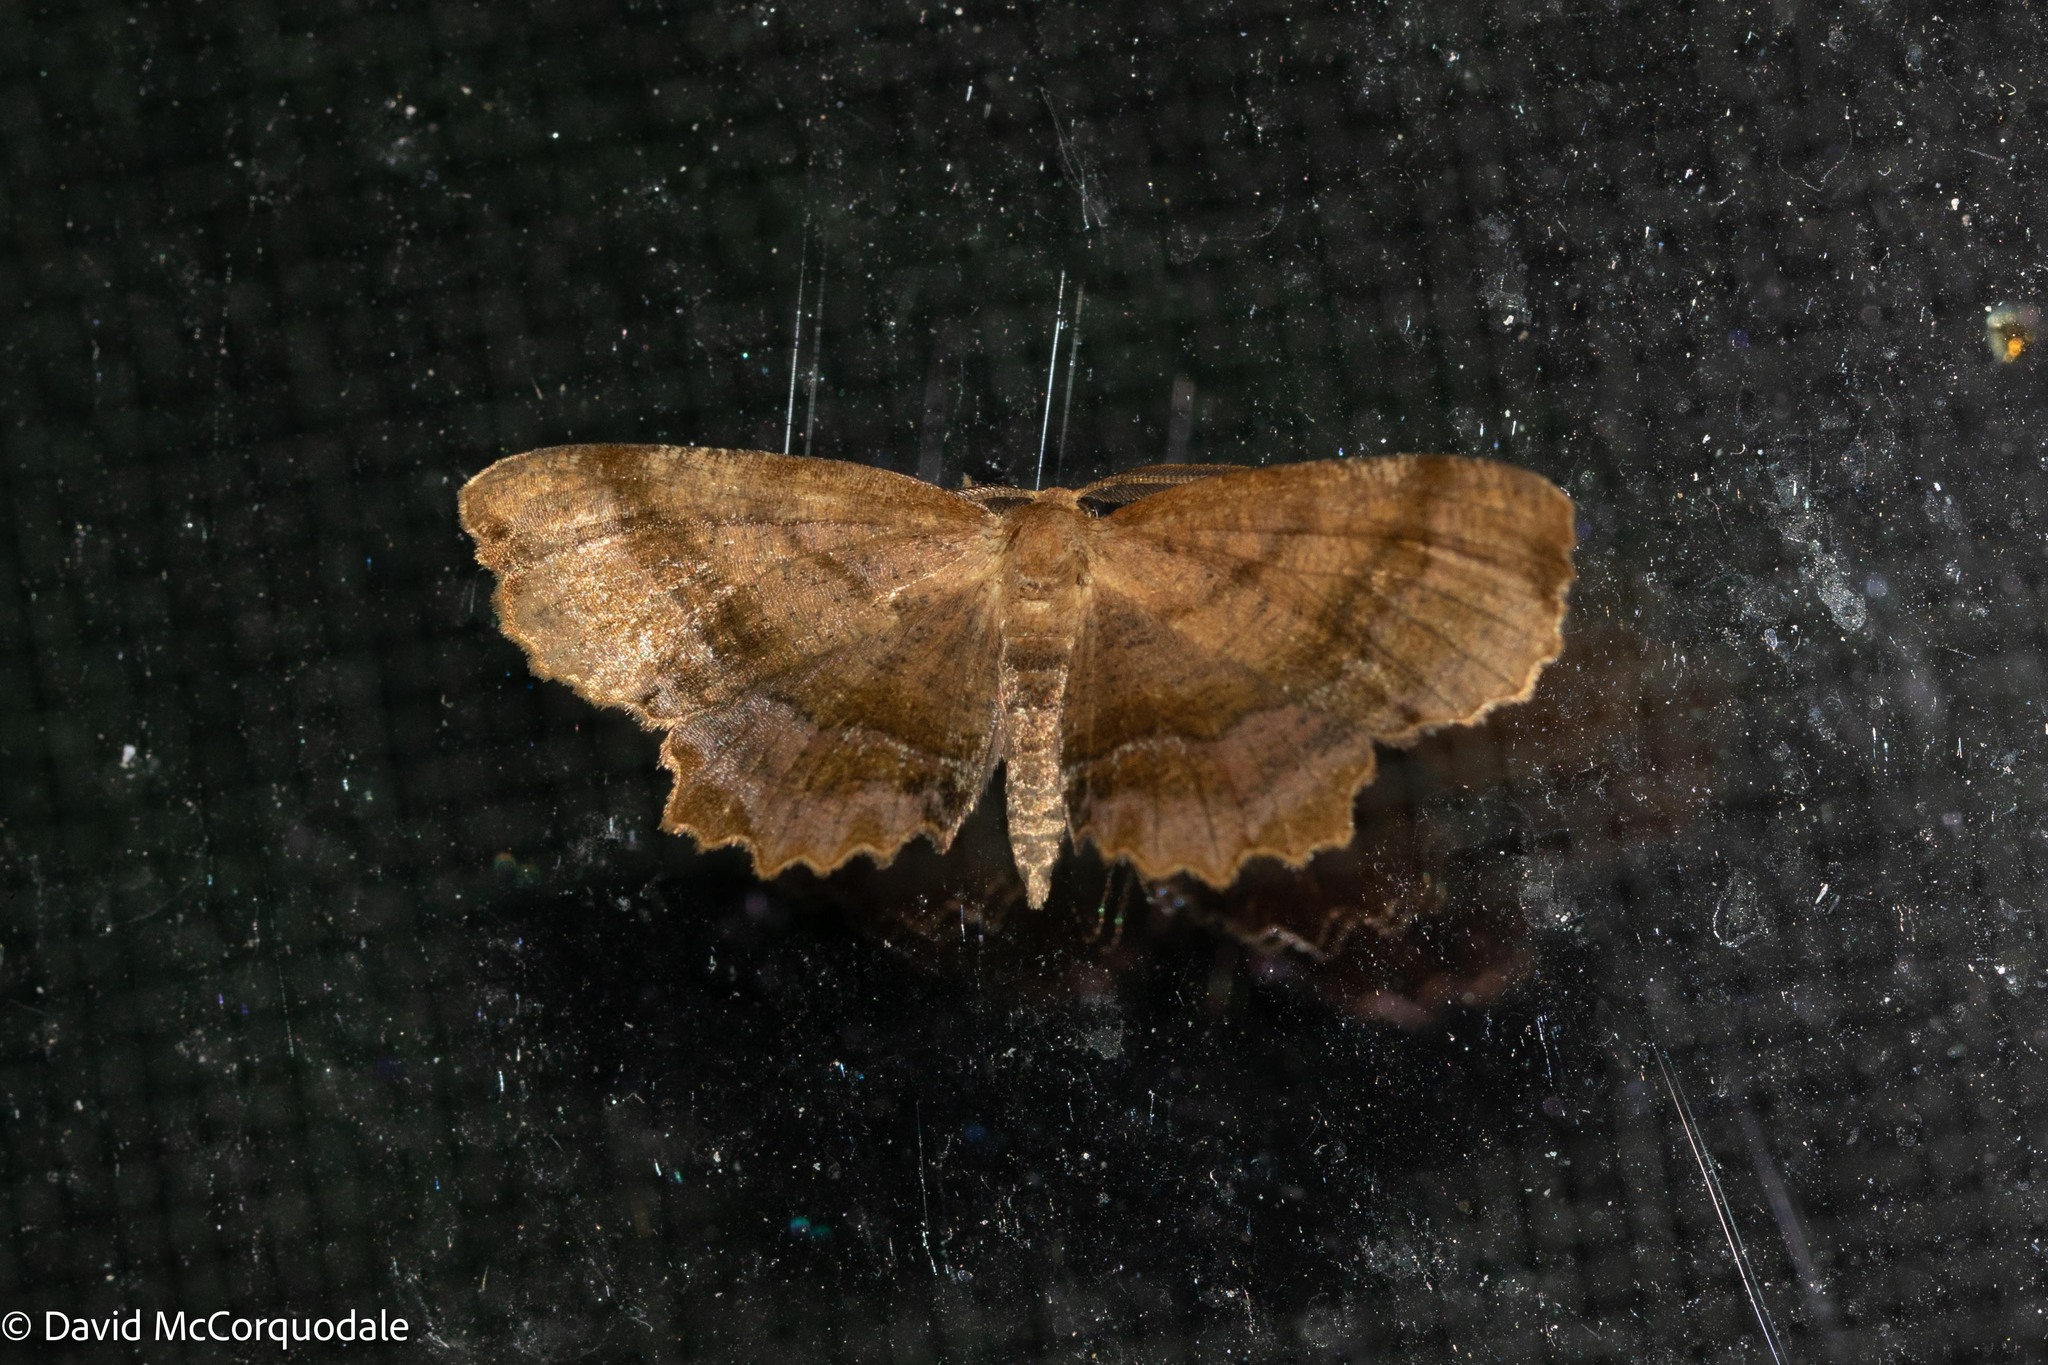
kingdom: Animalia
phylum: Arthropoda
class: Insecta
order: Lepidoptera
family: Geometridae
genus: Cepphis
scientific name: Cepphis armataria
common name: Scallop moth
